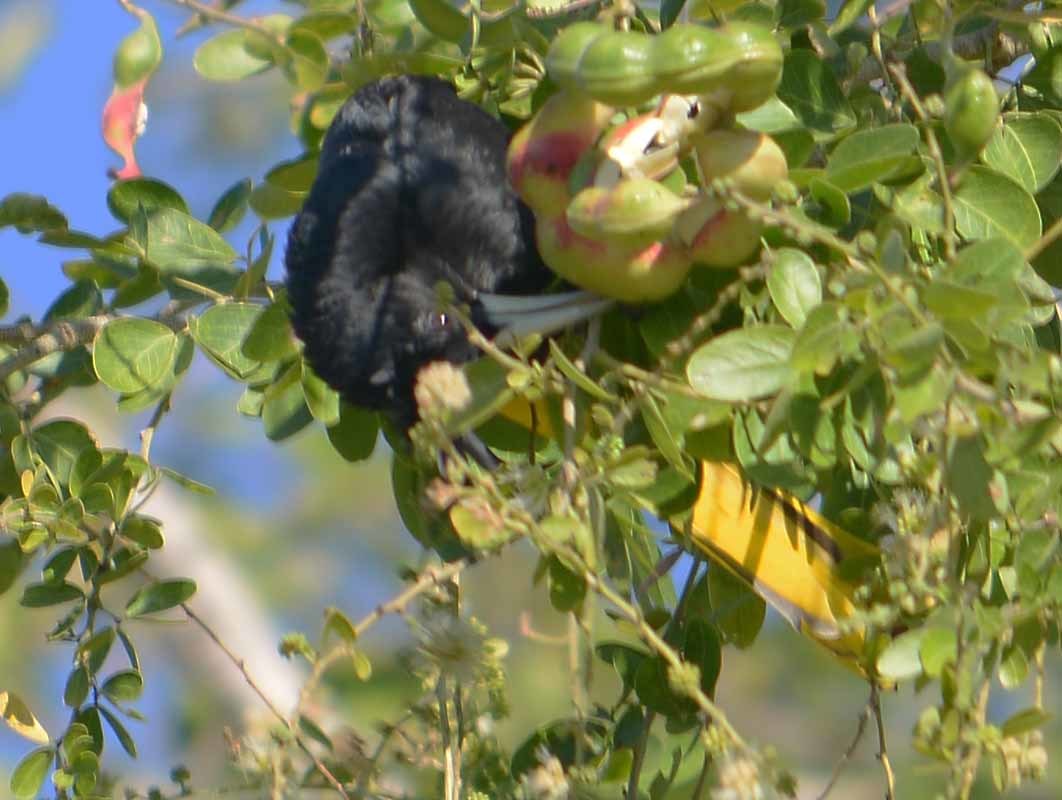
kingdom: Animalia
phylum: Chordata
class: Aves
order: Passeriformes
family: Icteridae
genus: Cacicus
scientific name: Cacicus melanicterus
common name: Yellow-winged cacique
